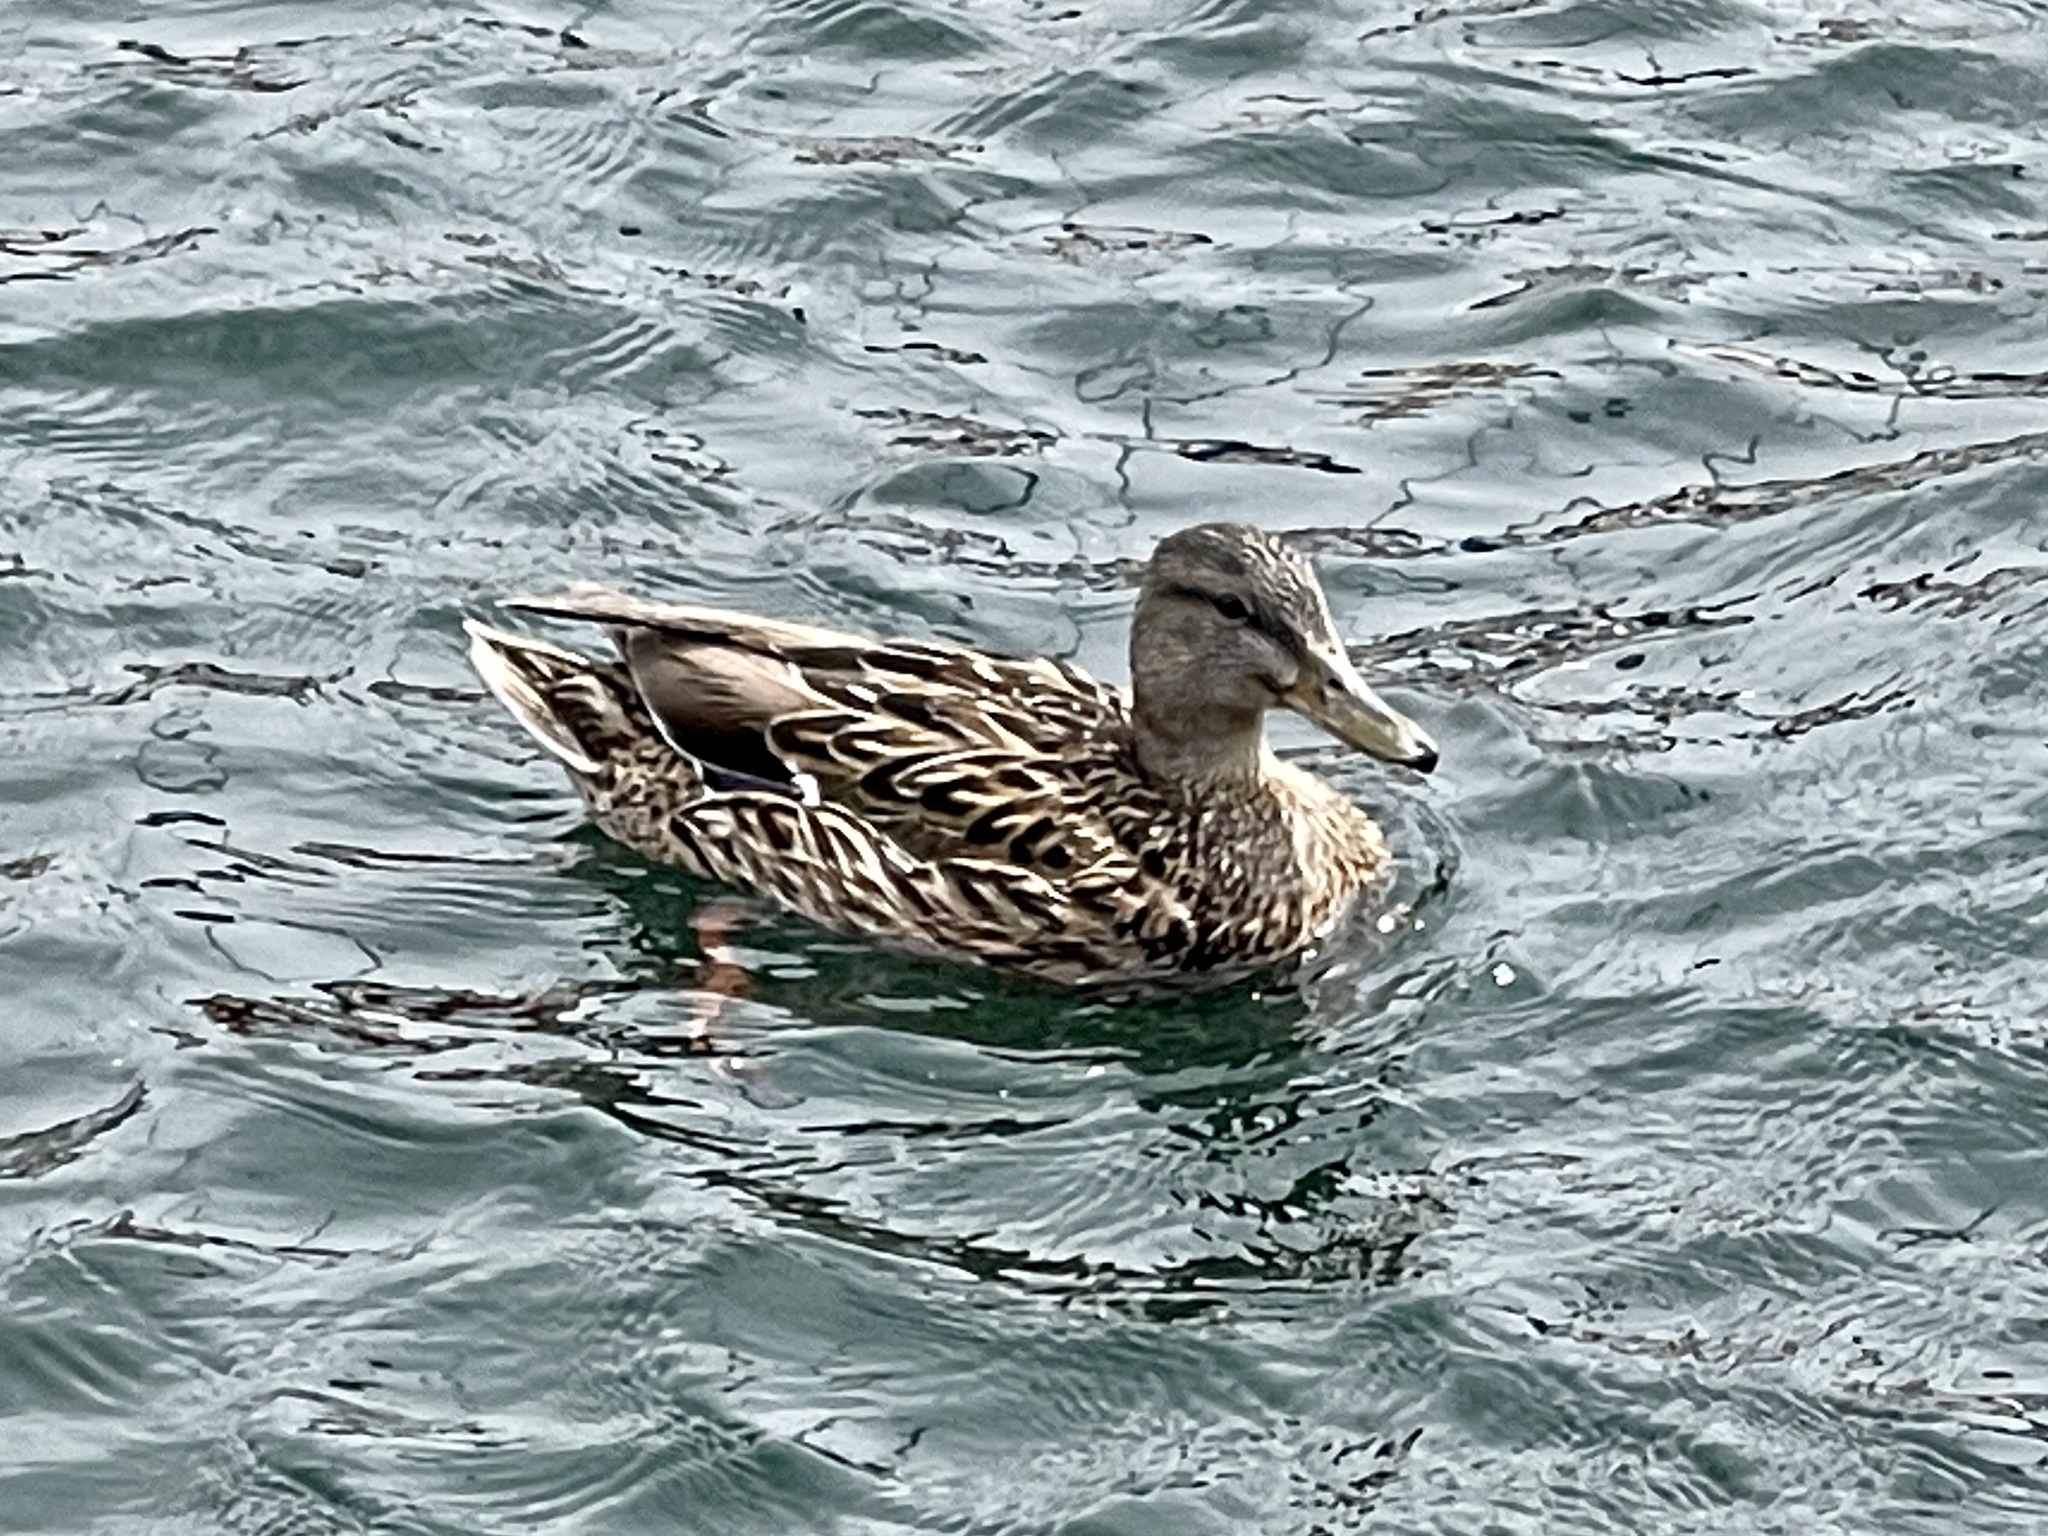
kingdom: Animalia
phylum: Chordata
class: Aves
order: Anseriformes
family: Anatidae
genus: Anas
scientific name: Anas platyrhynchos
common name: Mallard
